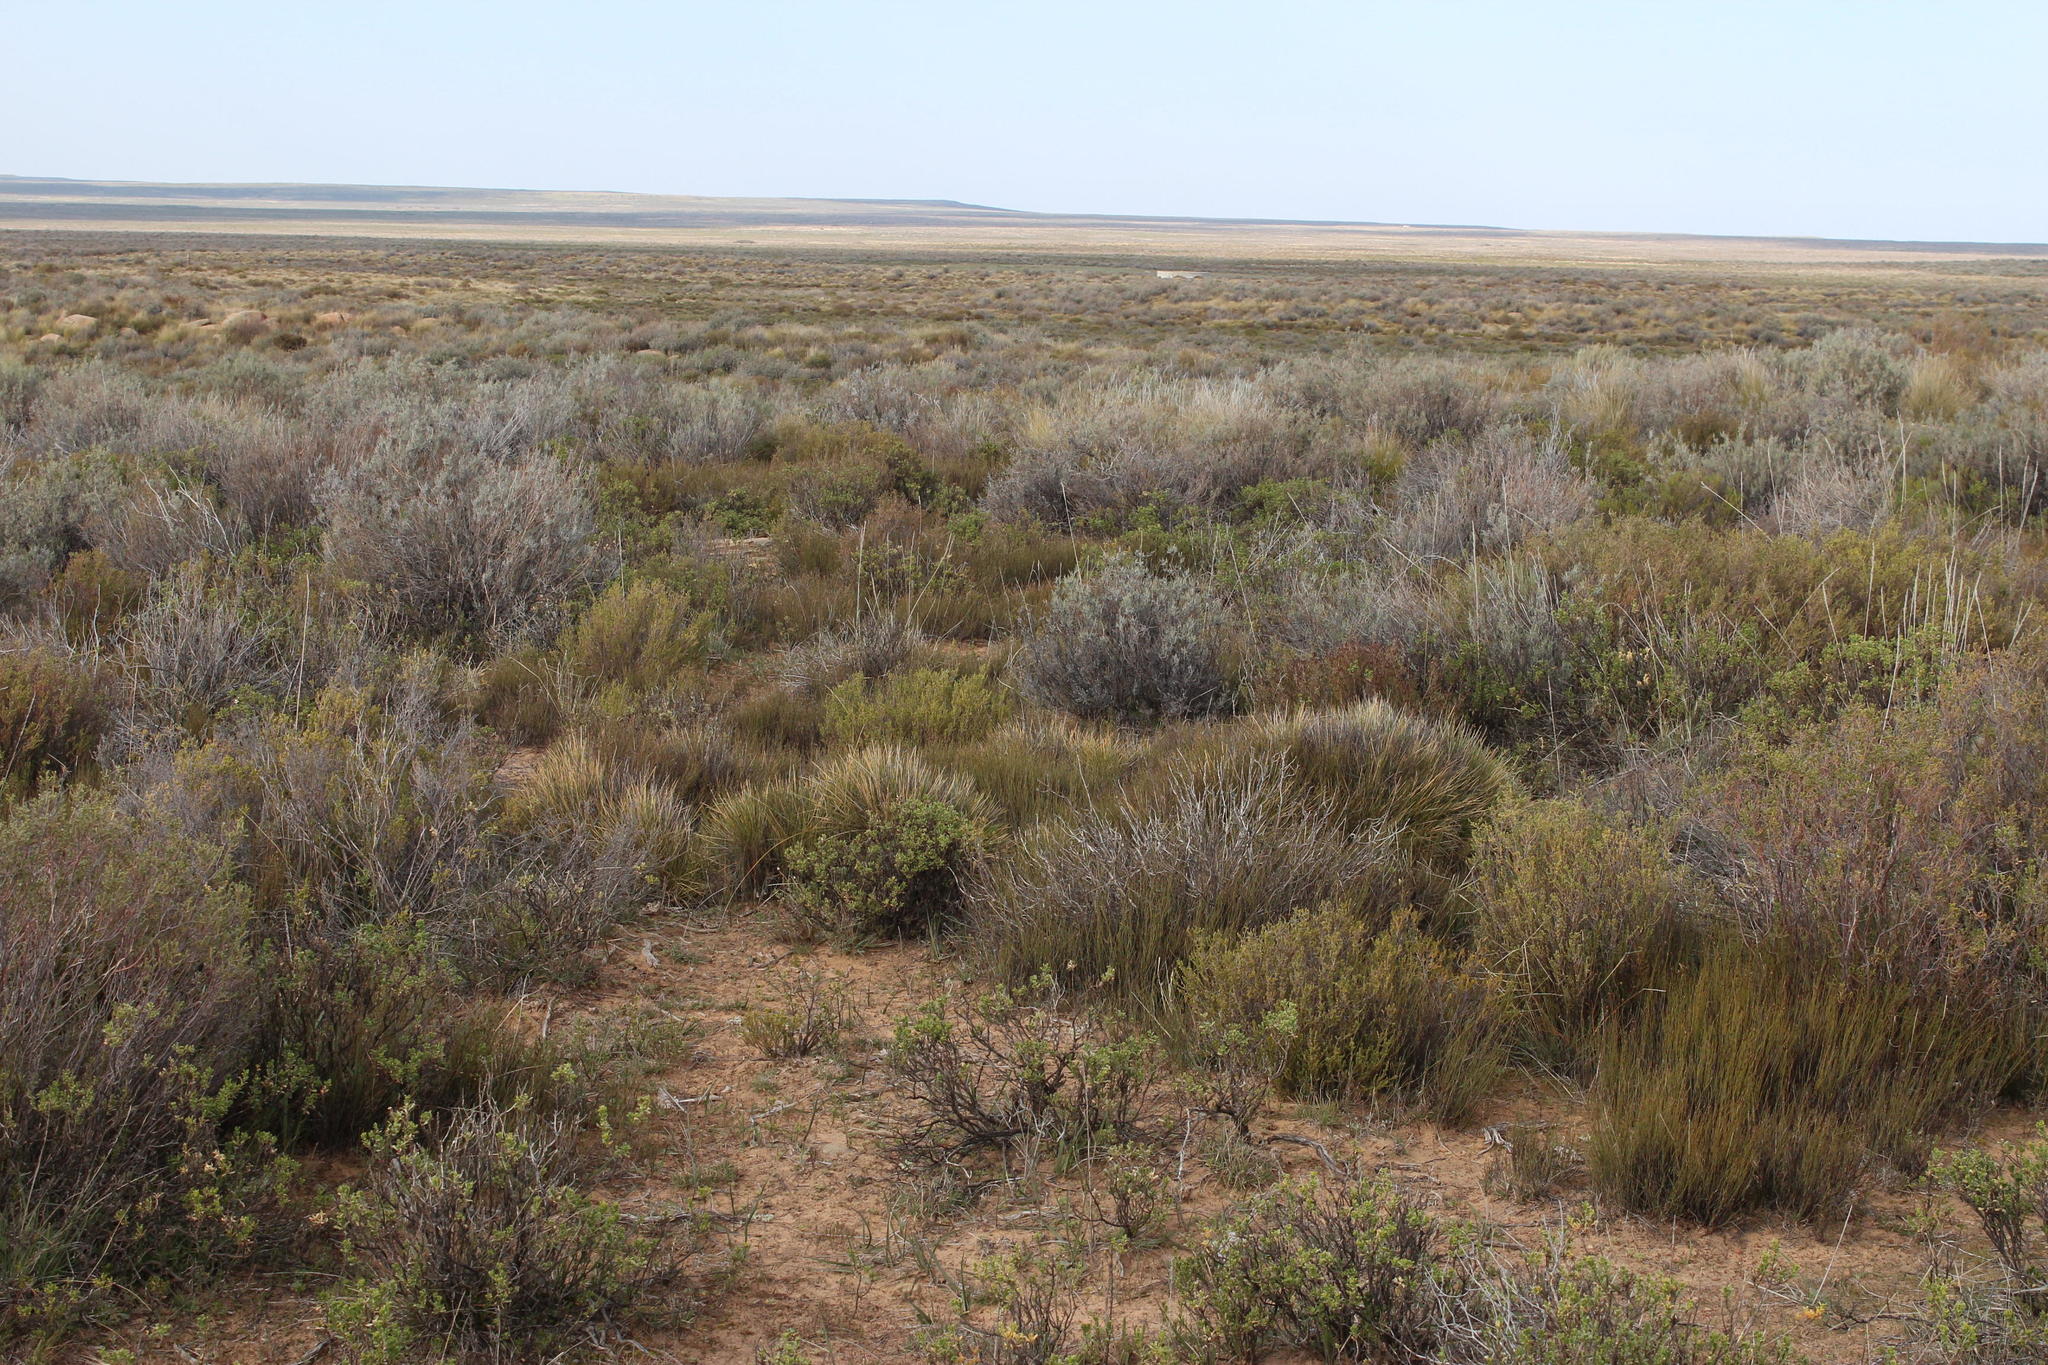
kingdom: Plantae
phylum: Tracheophyta
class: Liliopsida
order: Poales
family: Restionaceae
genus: Restio
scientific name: Restio sieberi
